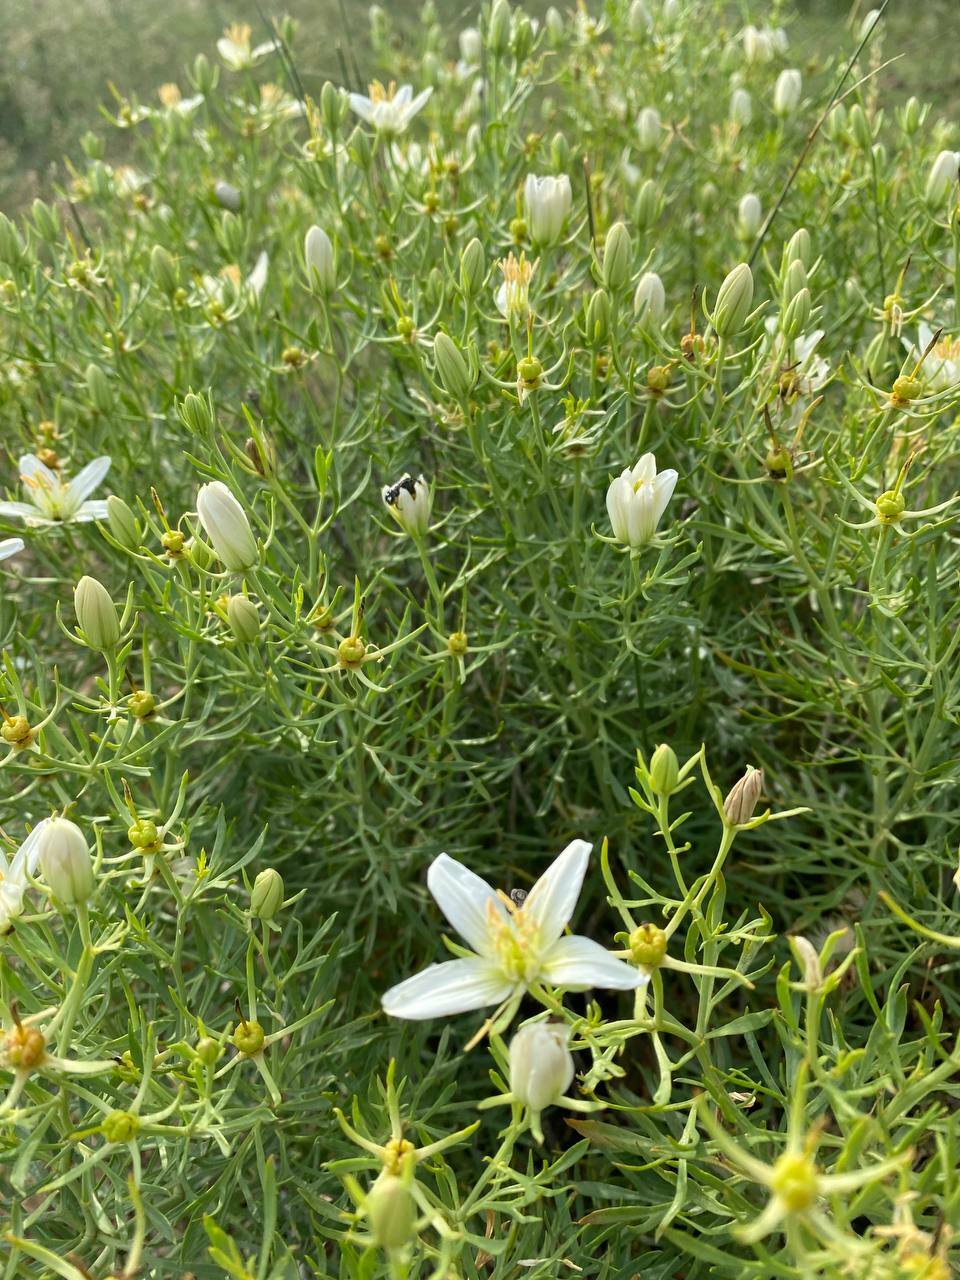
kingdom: Plantae
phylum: Tracheophyta
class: Magnoliopsida
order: Sapindales
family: Tetradiclidaceae
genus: Peganum
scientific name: Peganum harmala
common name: Harmal peganum
